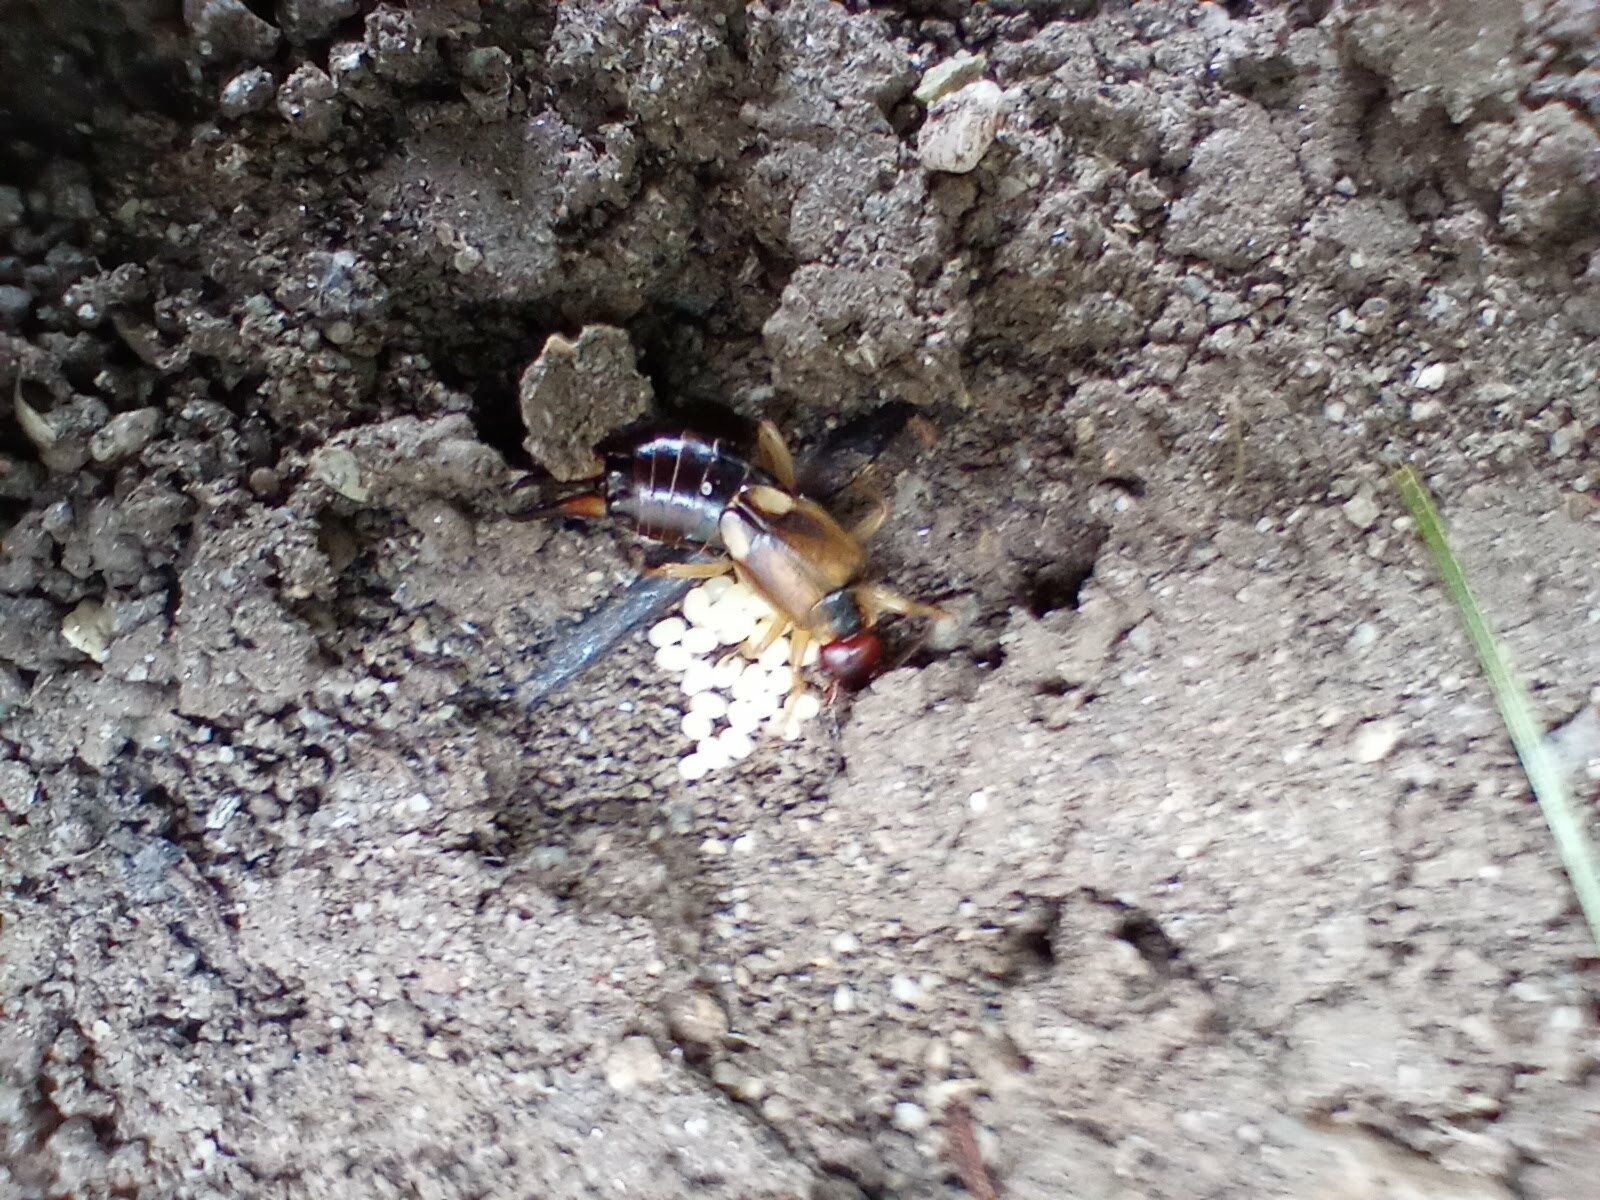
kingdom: Animalia
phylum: Arthropoda
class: Insecta
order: Dermaptera
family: Forficulidae
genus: Forficula
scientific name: Forficula
